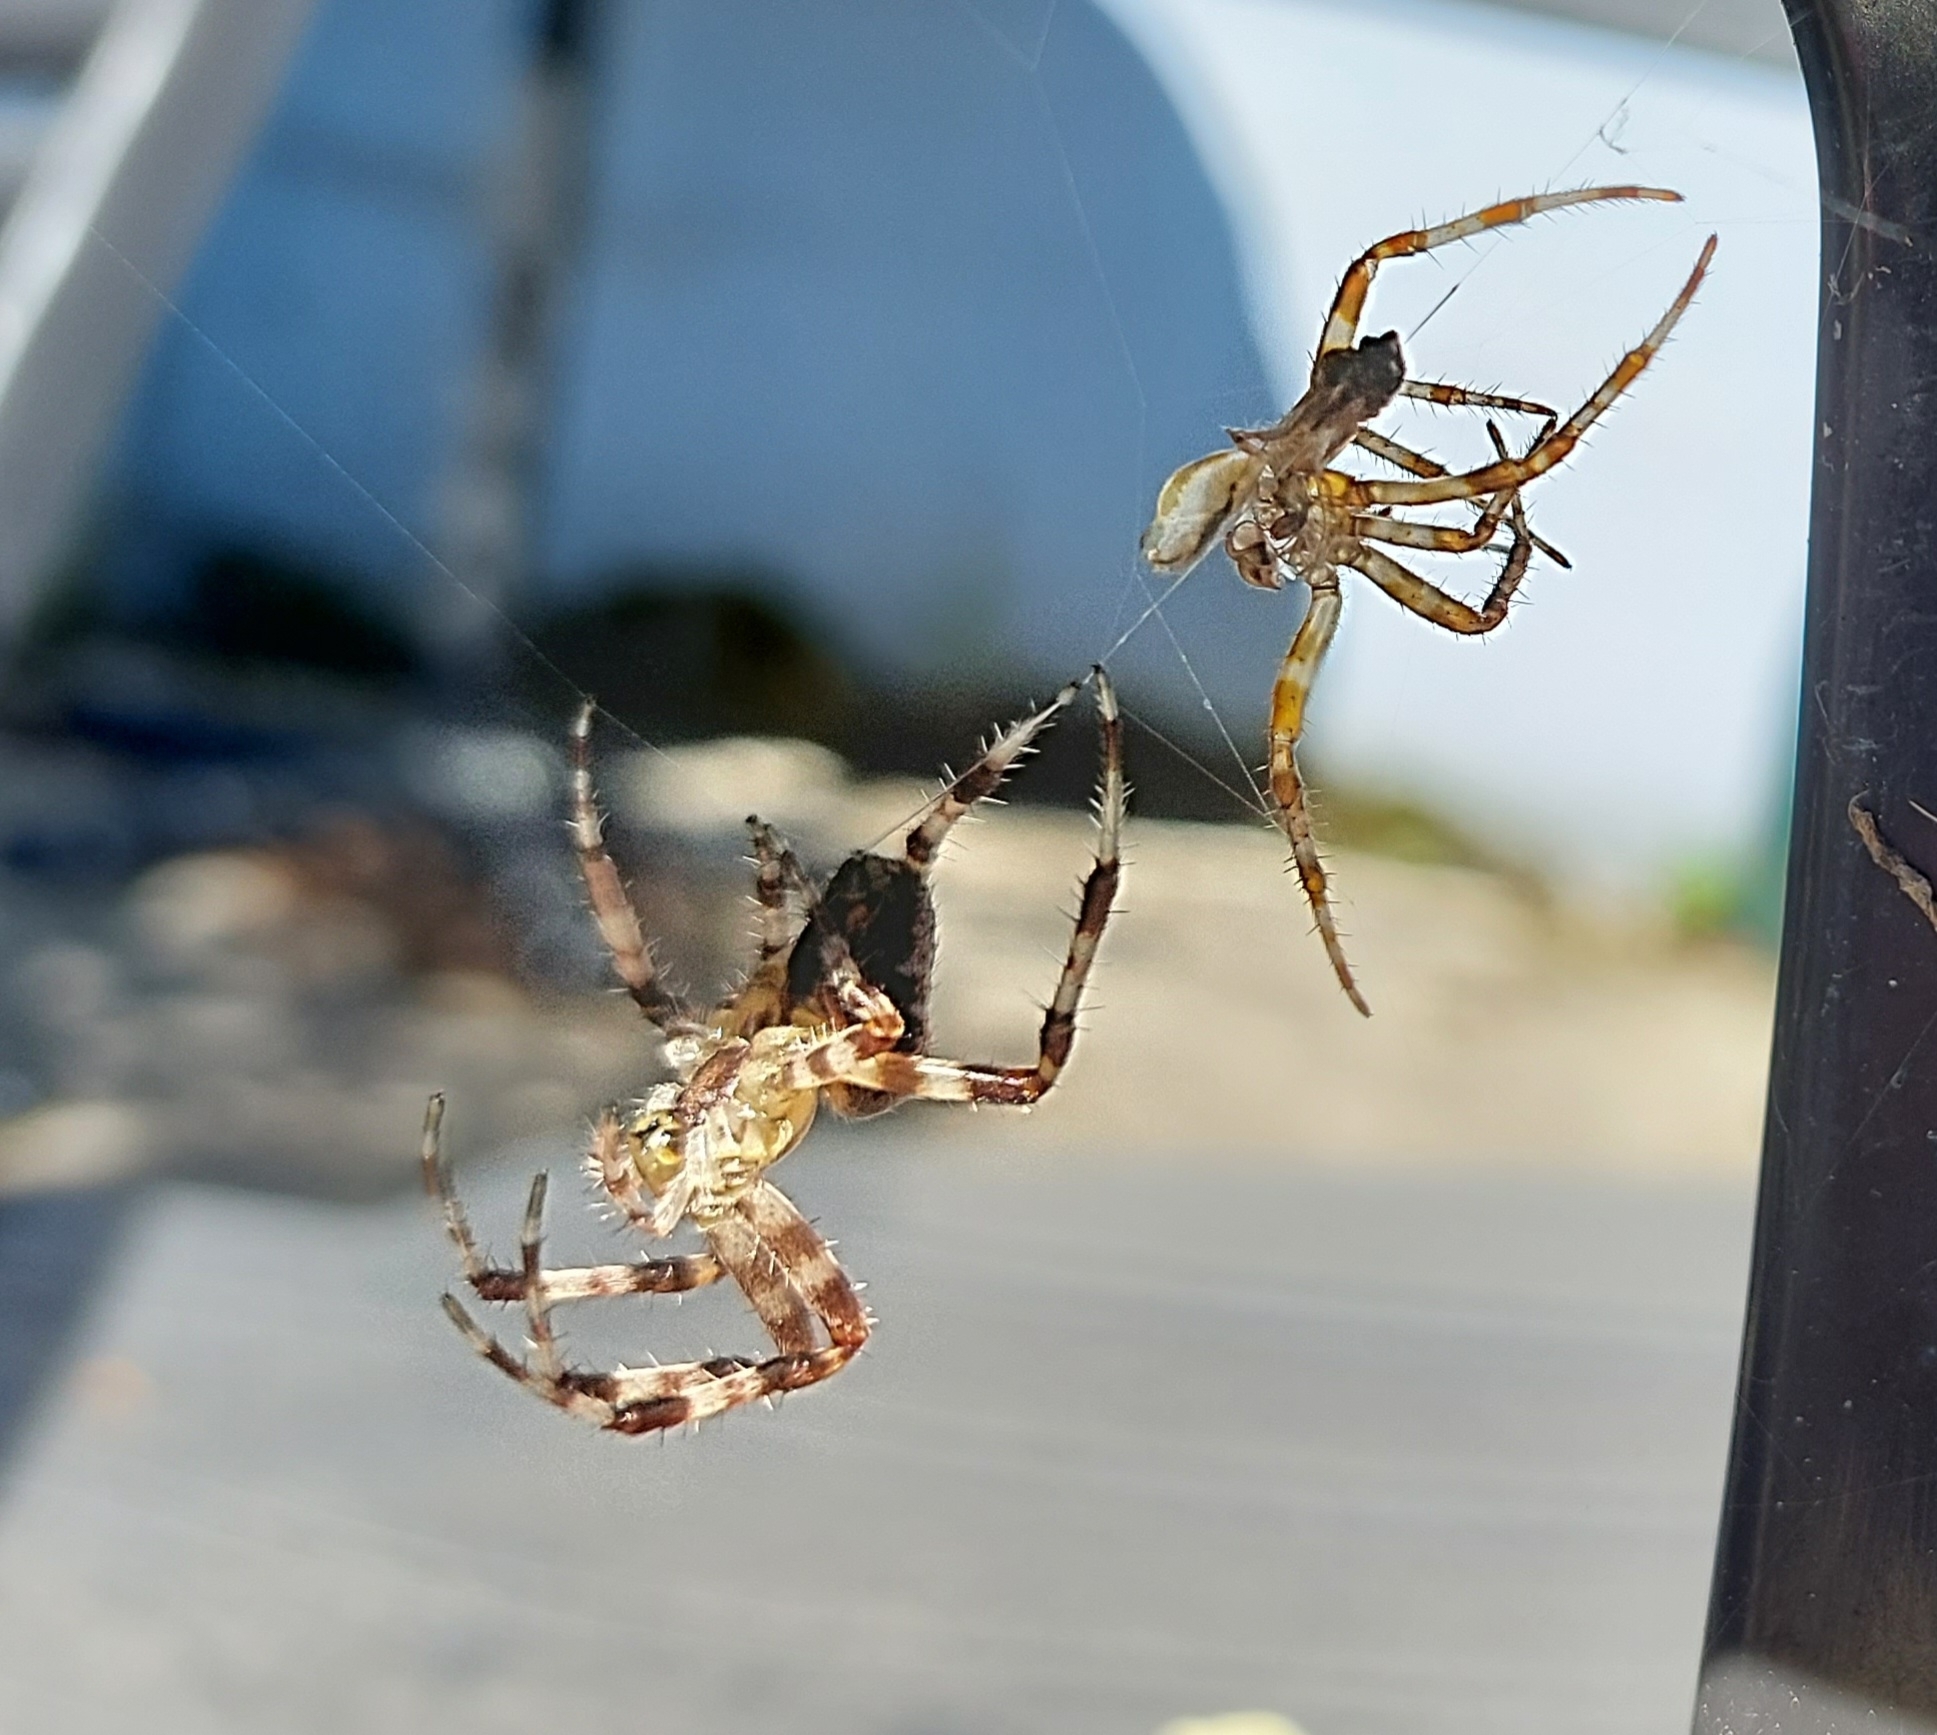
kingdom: Animalia
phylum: Arthropoda
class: Arachnida
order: Araneae
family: Araneidae
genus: Araneus
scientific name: Araneus diadematus
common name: Cross orbweaver
